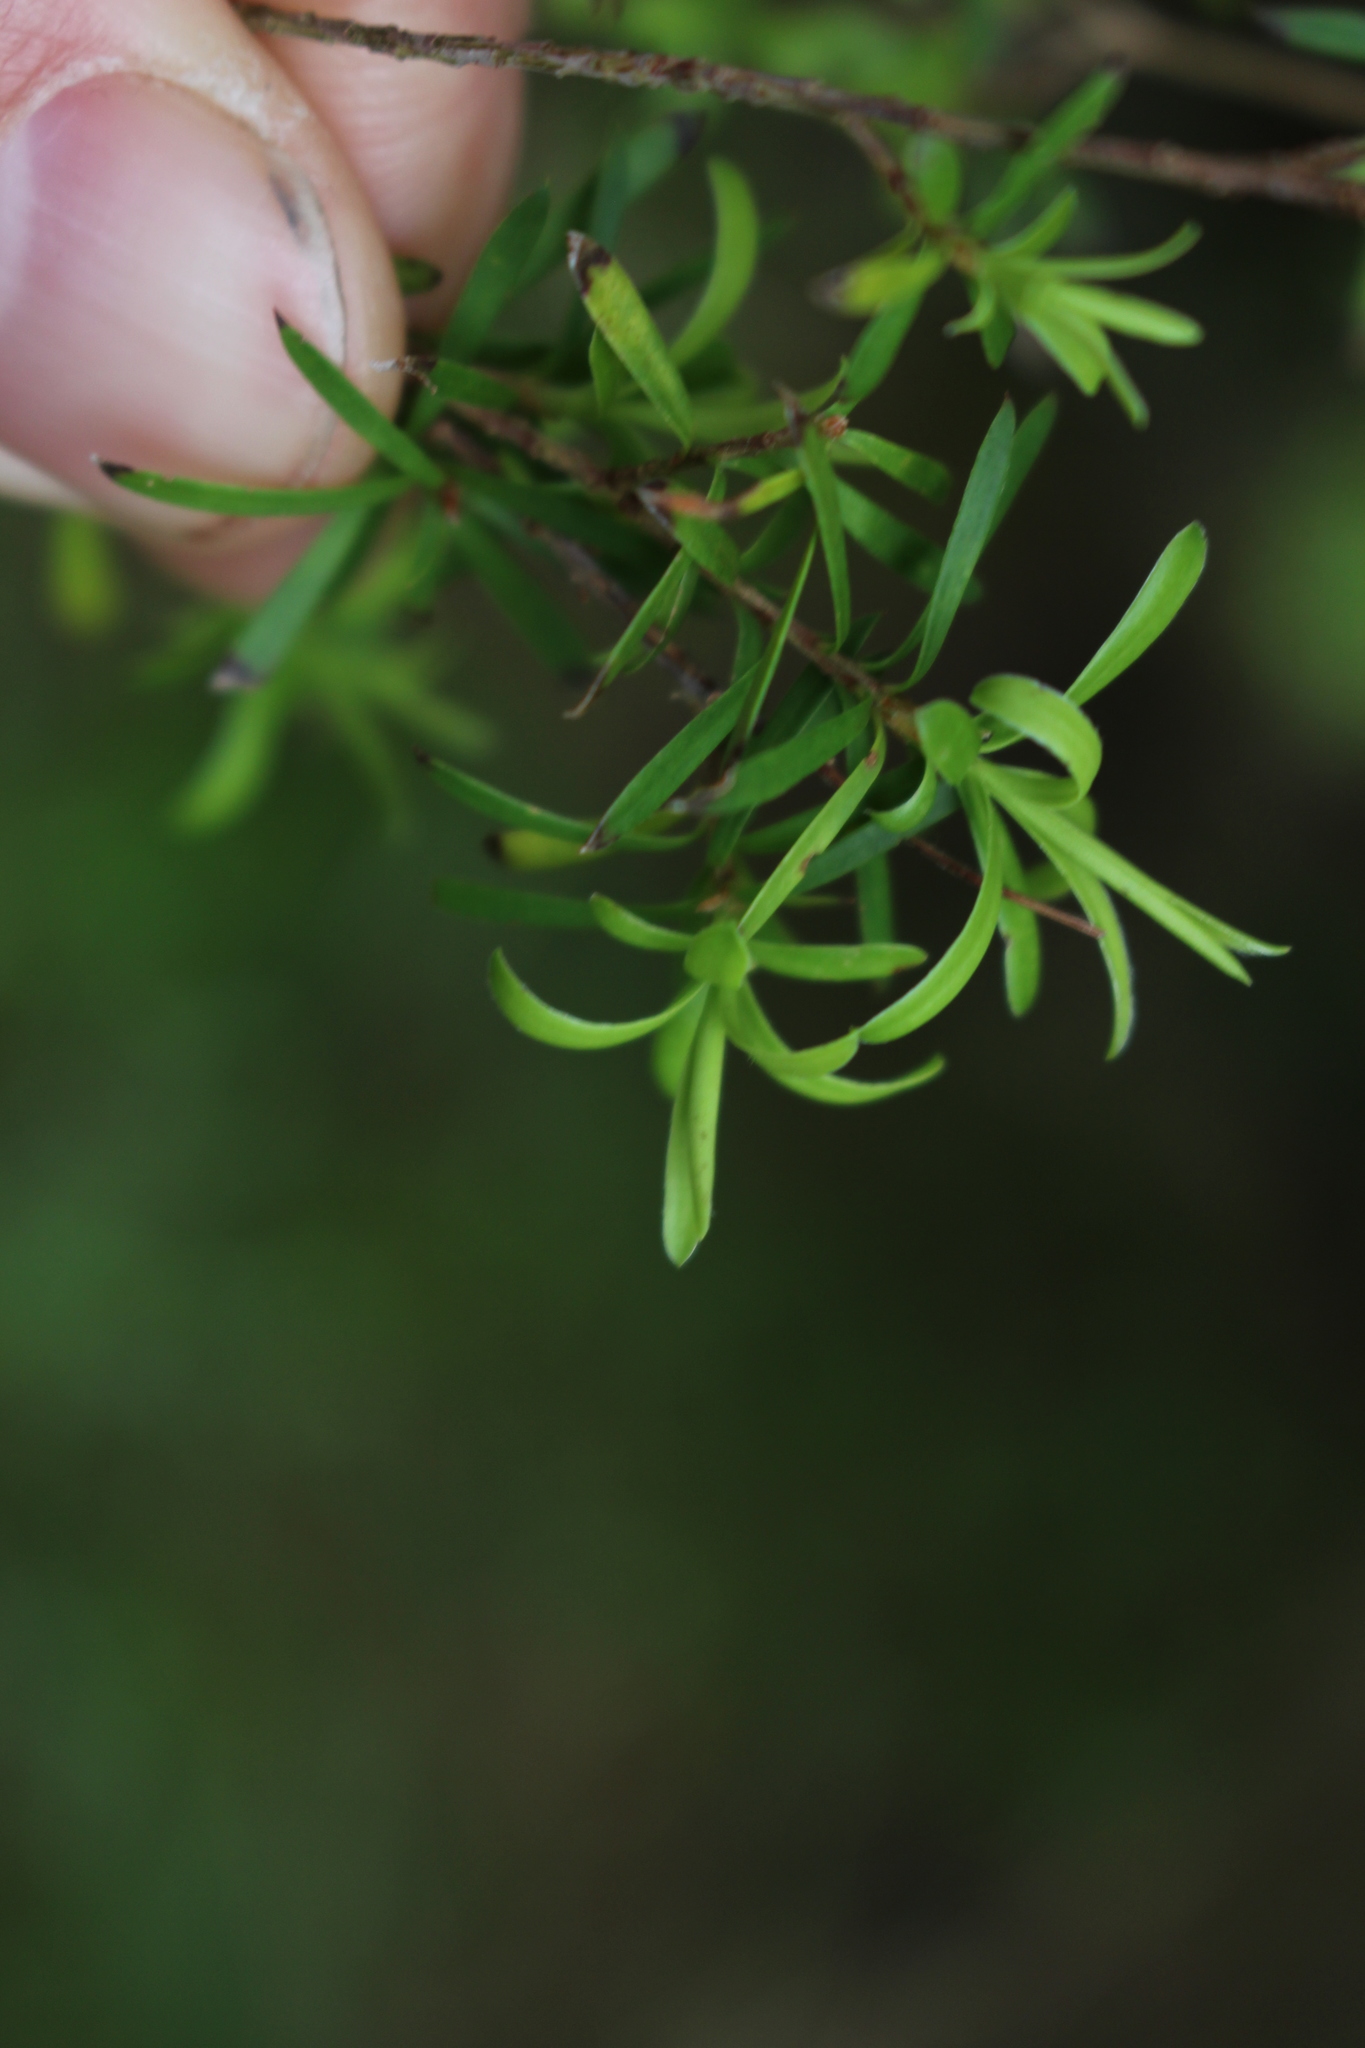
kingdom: Plantae
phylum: Tracheophyta
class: Magnoliopsida
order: Myrtales
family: Myrtaceae
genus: Kunzea
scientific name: Kunzea robusta
